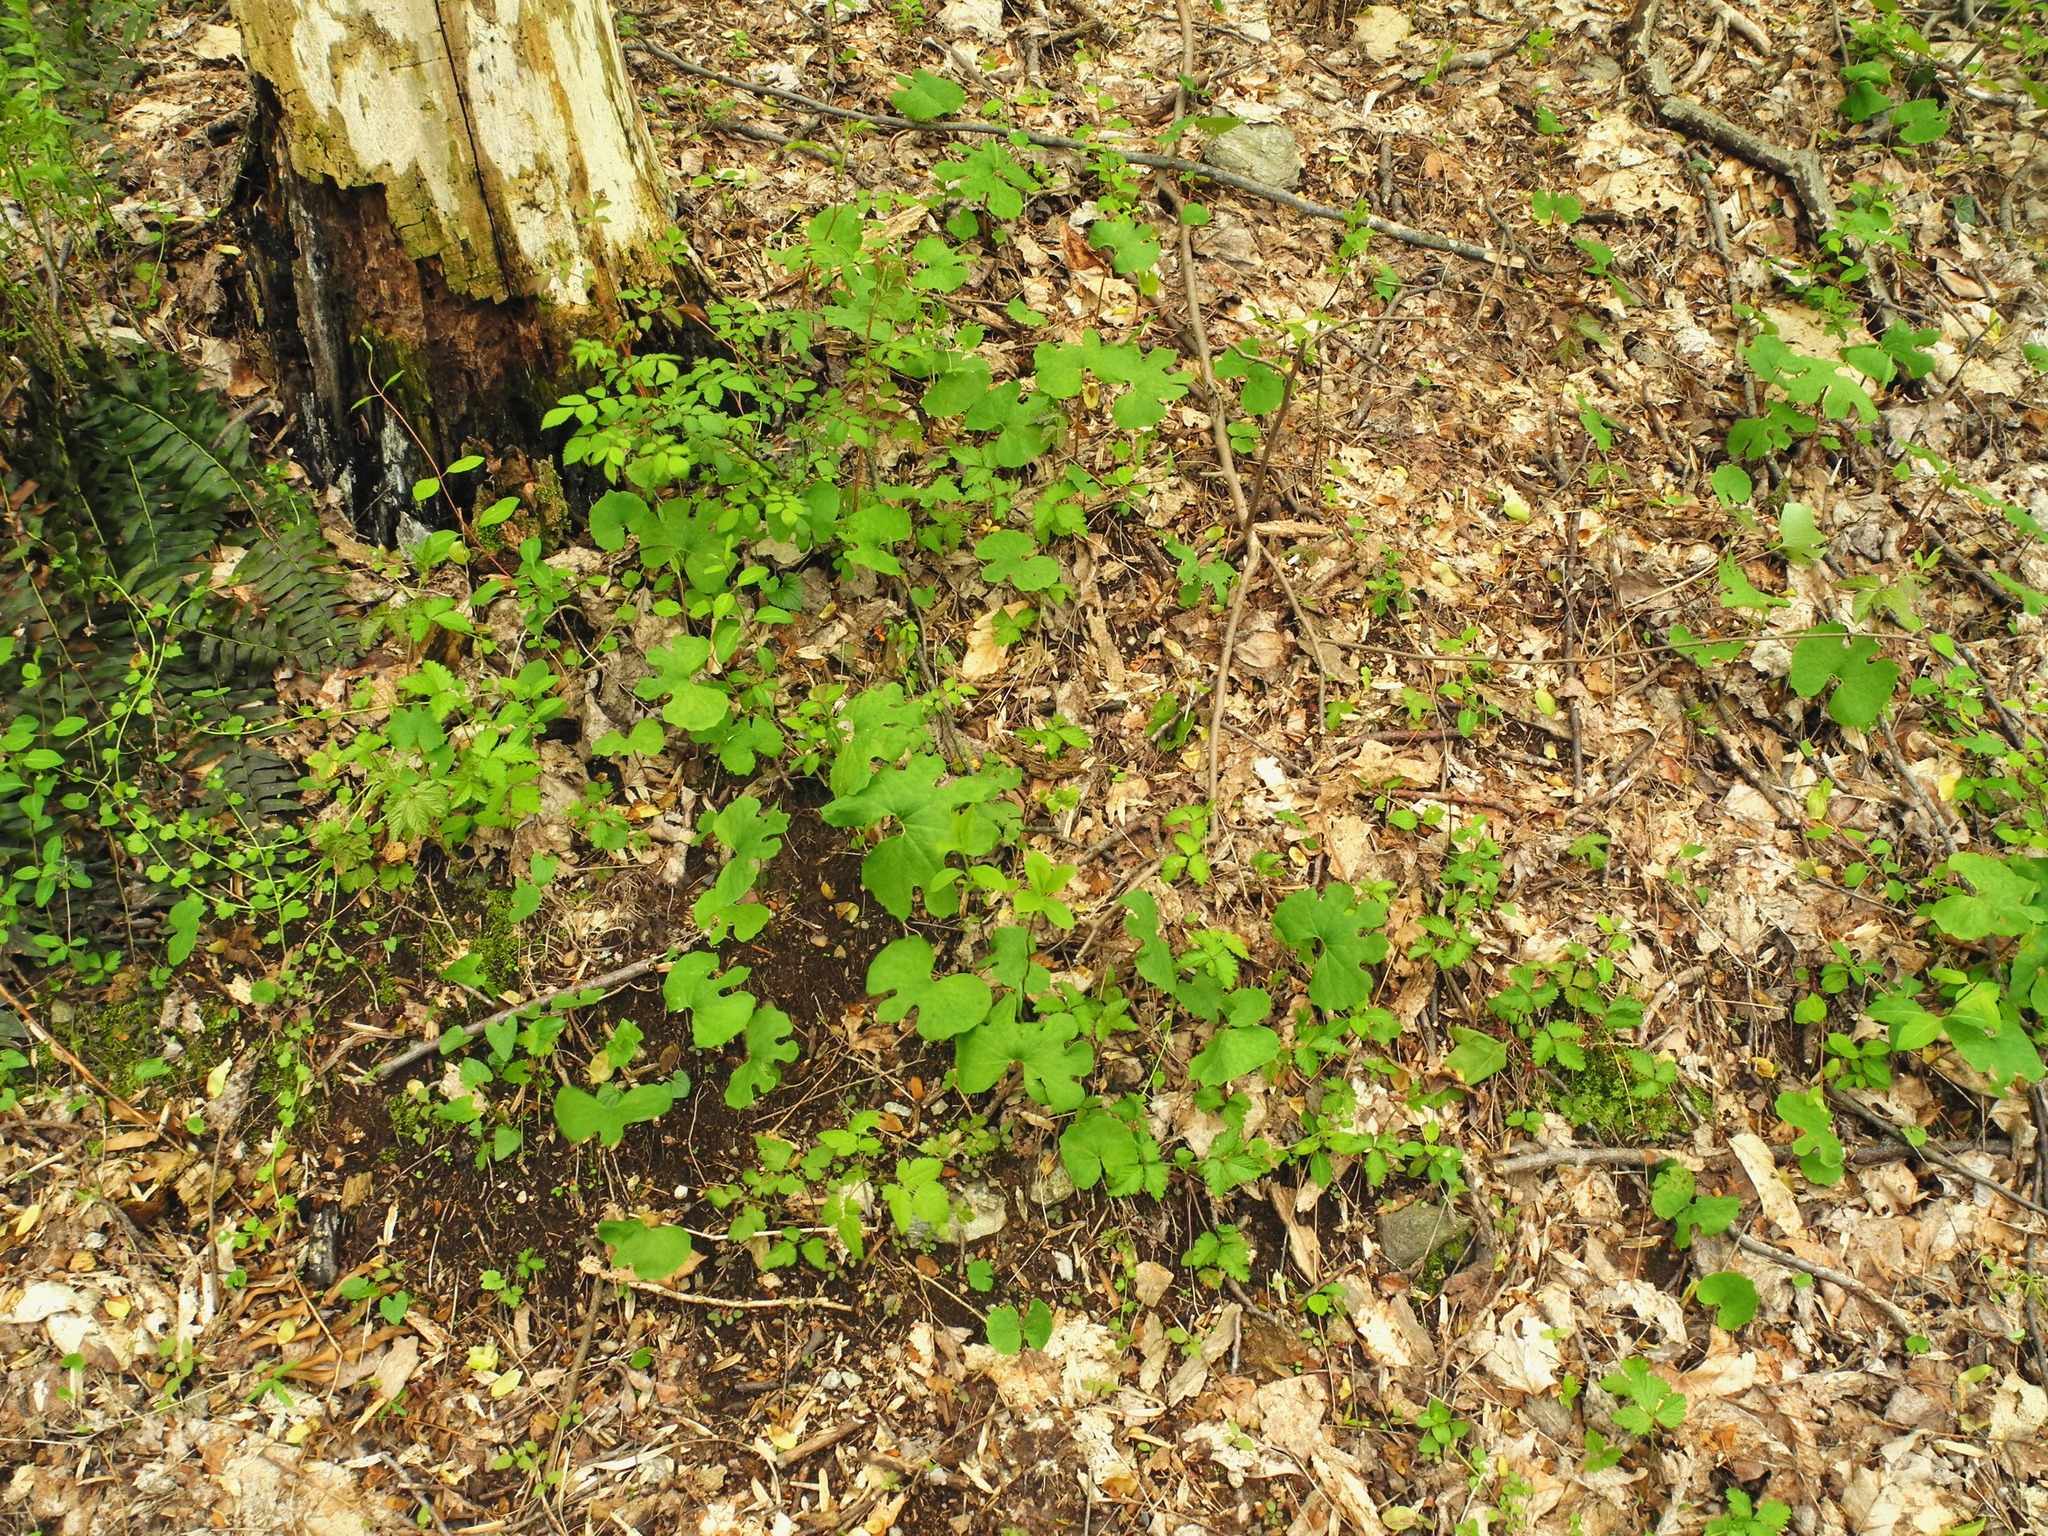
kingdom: Plantae
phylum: Tracheophyta
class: Magnoliopsida
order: Ranunculales
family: Papaveraceae
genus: Sanguinaria
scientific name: Sanguinaria canadensis
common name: Bloodroot
